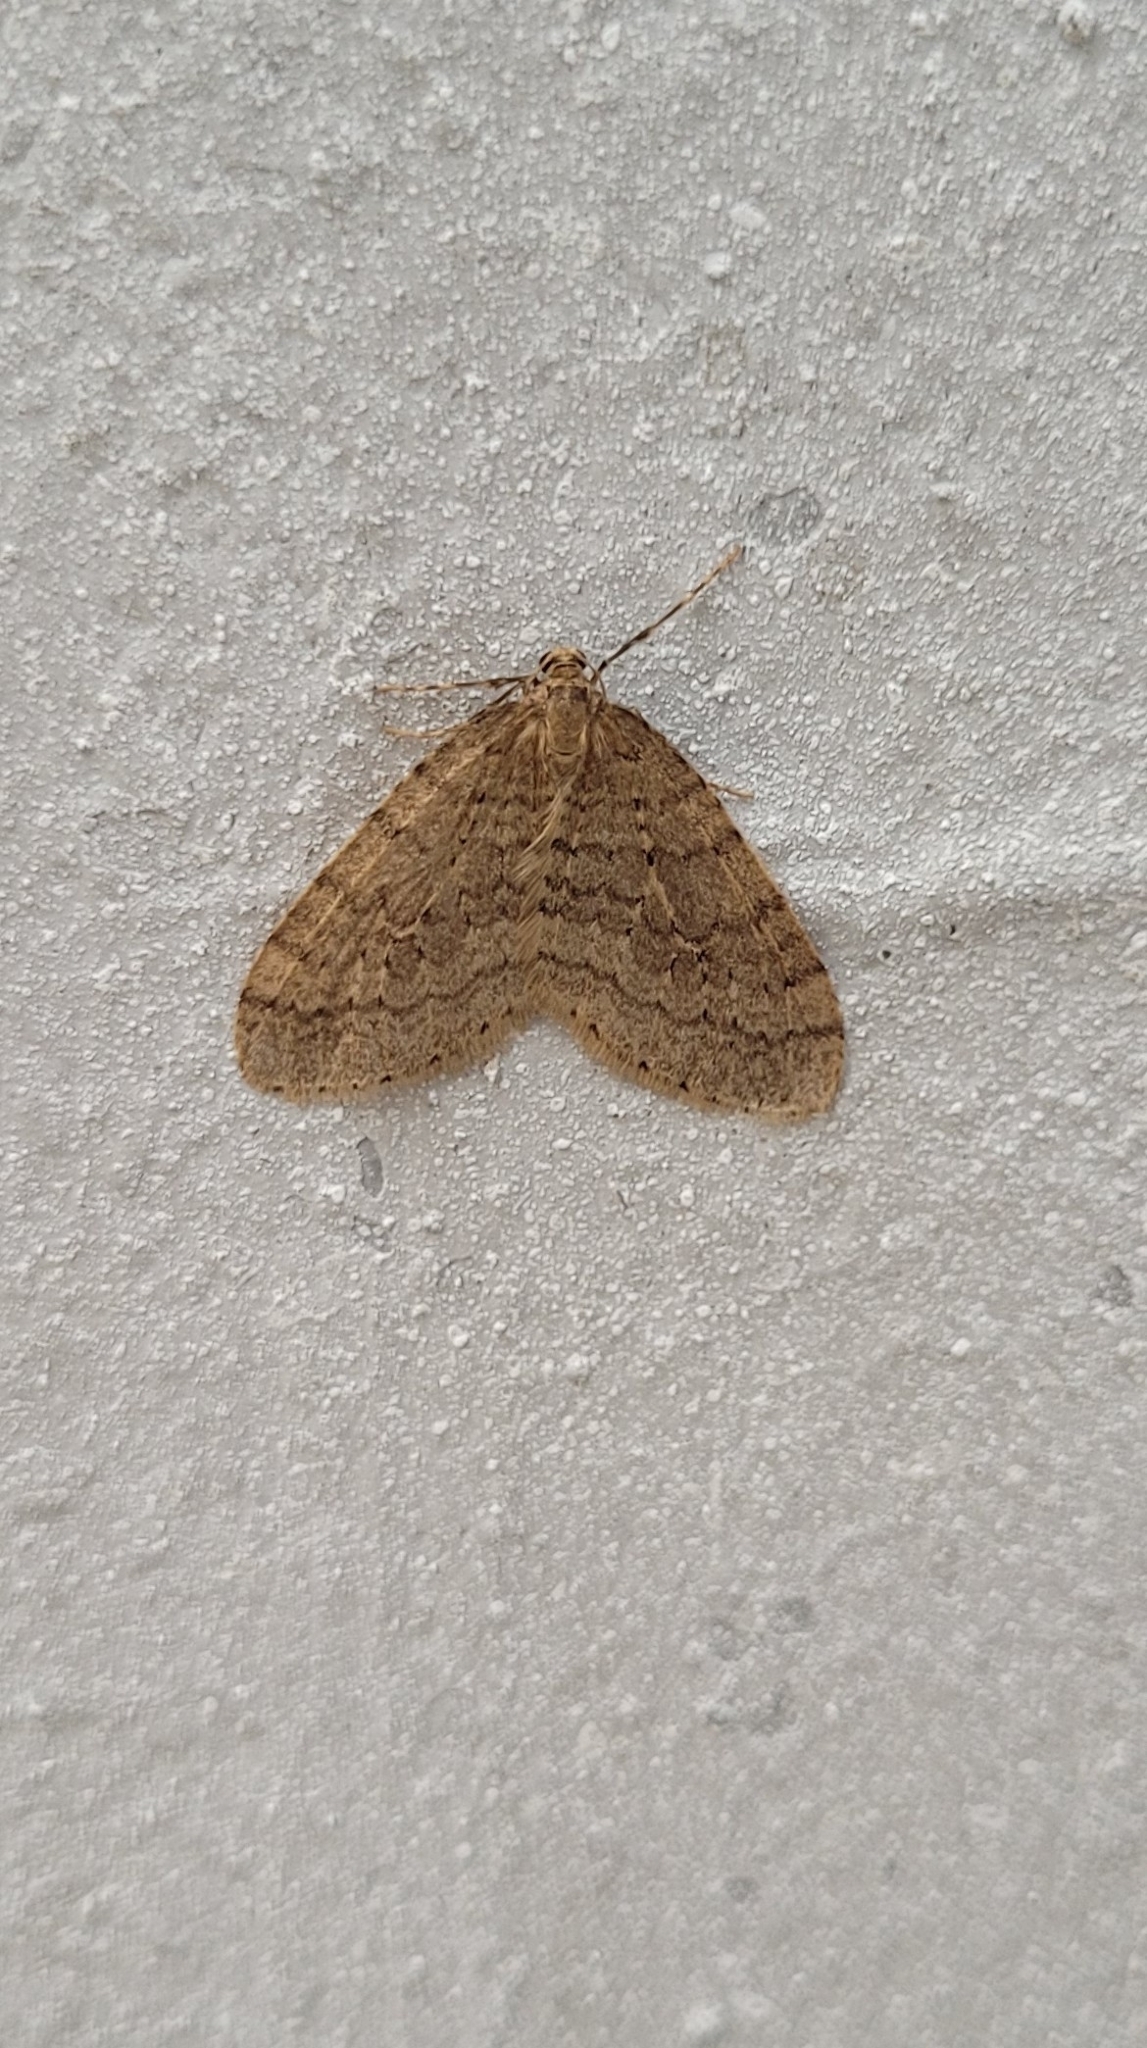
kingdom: Animalia
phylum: Arthropoda
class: Insecta
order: Lepidoptera
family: Geometridae
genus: Operophtera
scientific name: Operophtera brumata
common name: Winter moth
